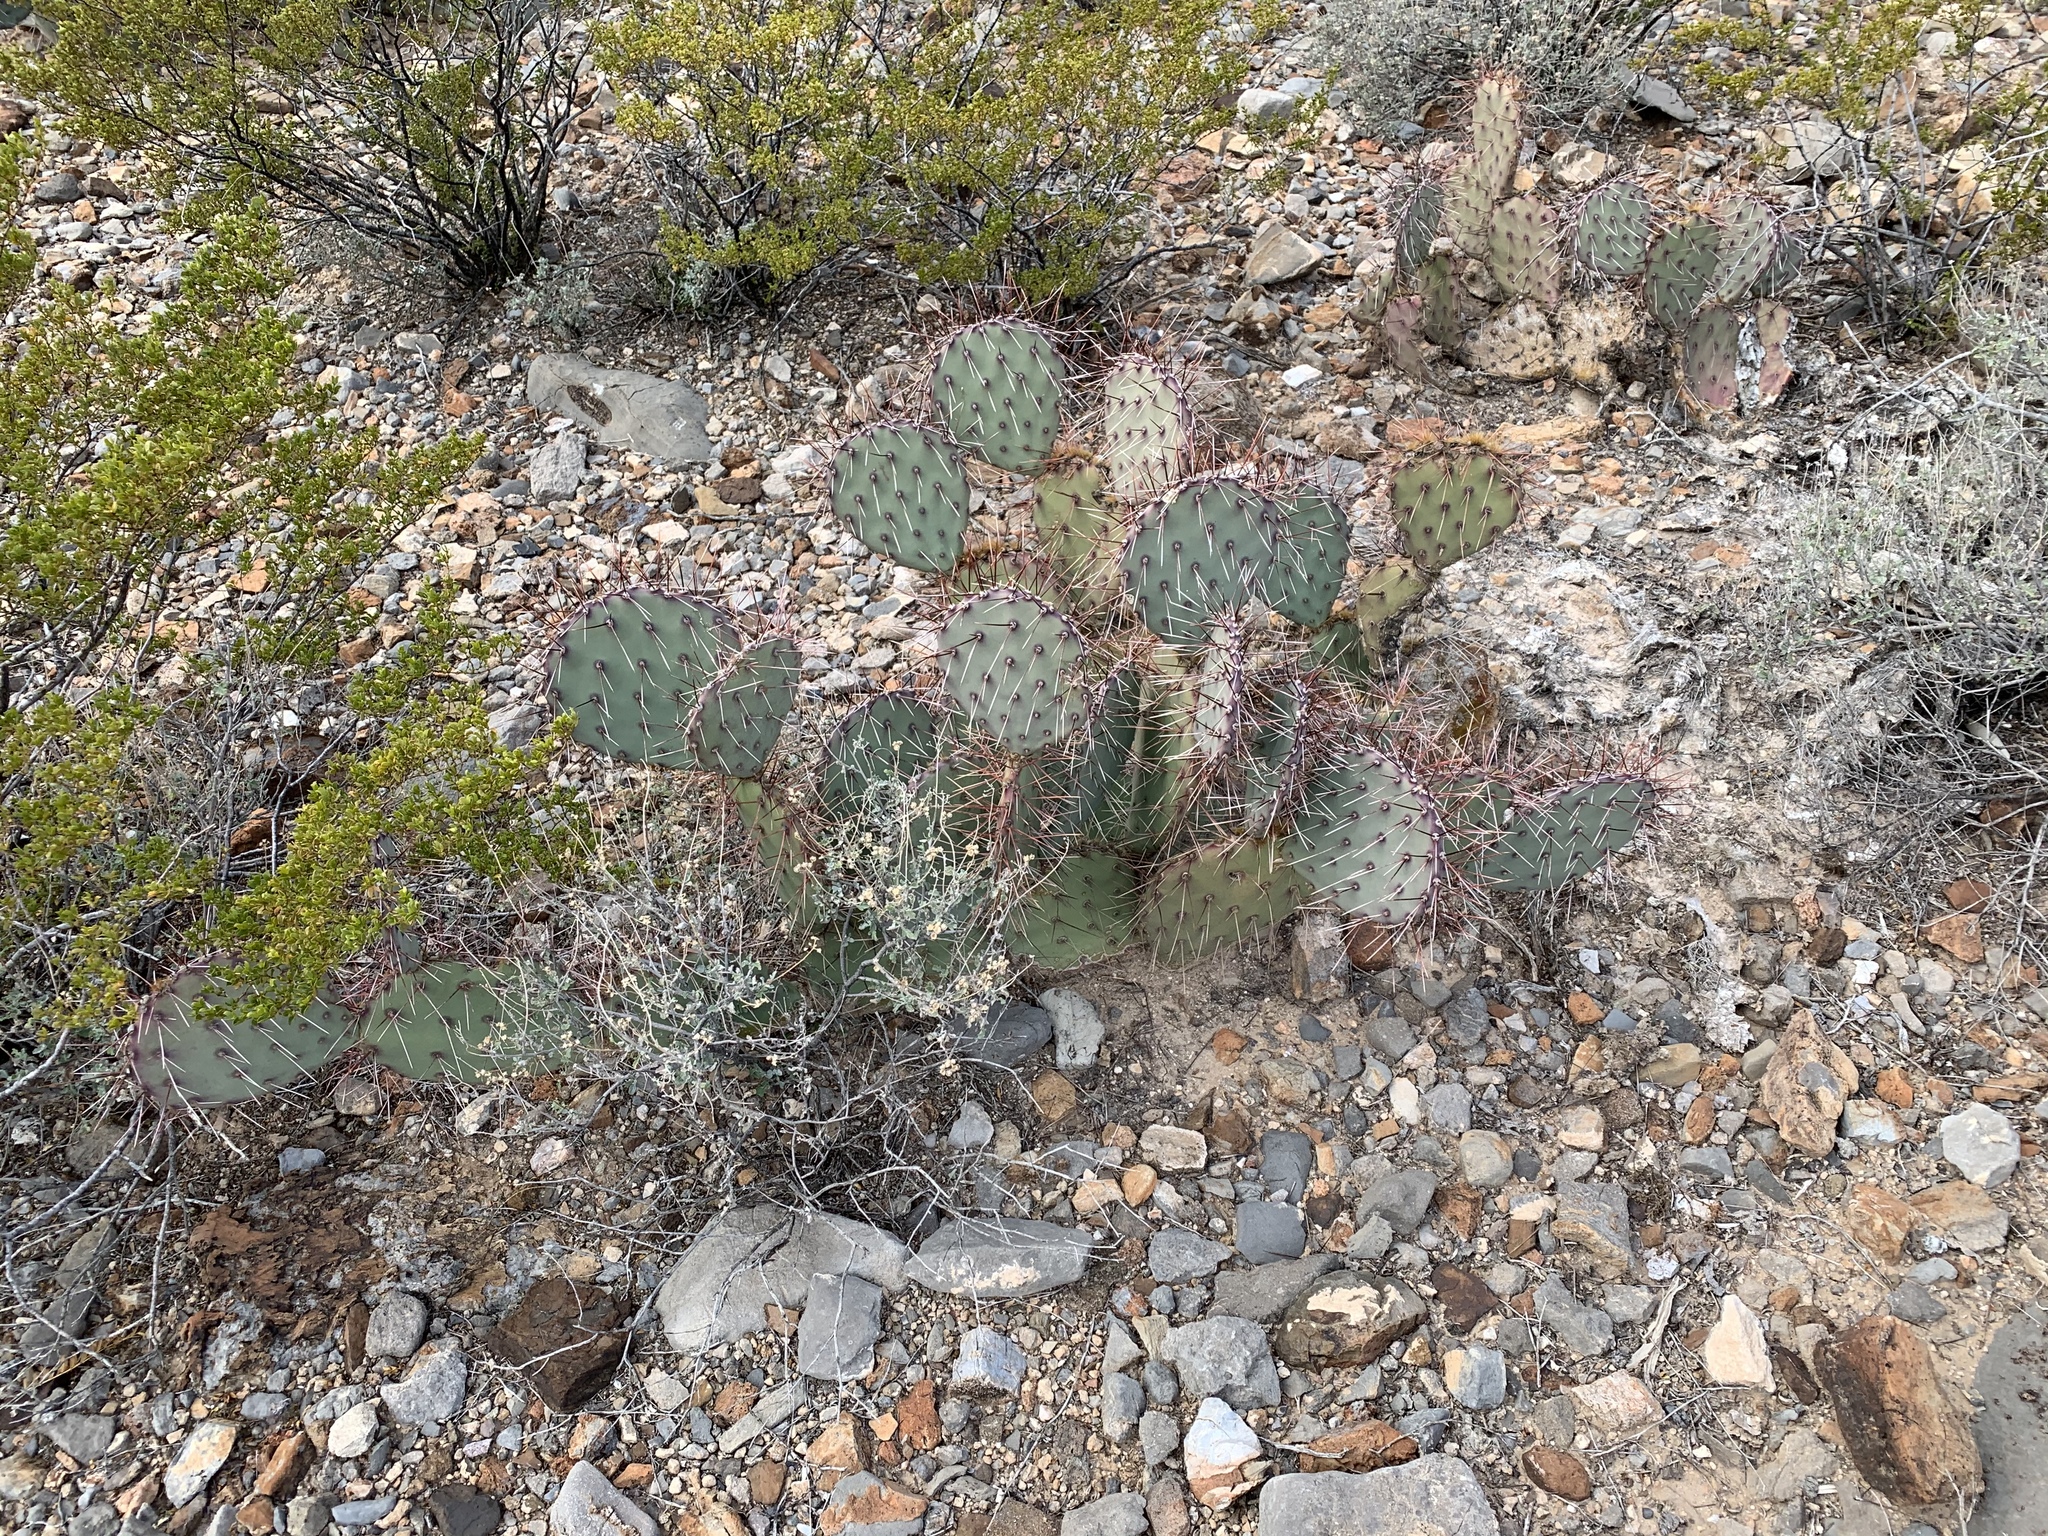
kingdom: Plantae
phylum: Tracheophyta
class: Magnoliopsida
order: Caryophyllales
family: Cactaceae
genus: Opuntia
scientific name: Opuntia macrocentra
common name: Purple prickly-pear
